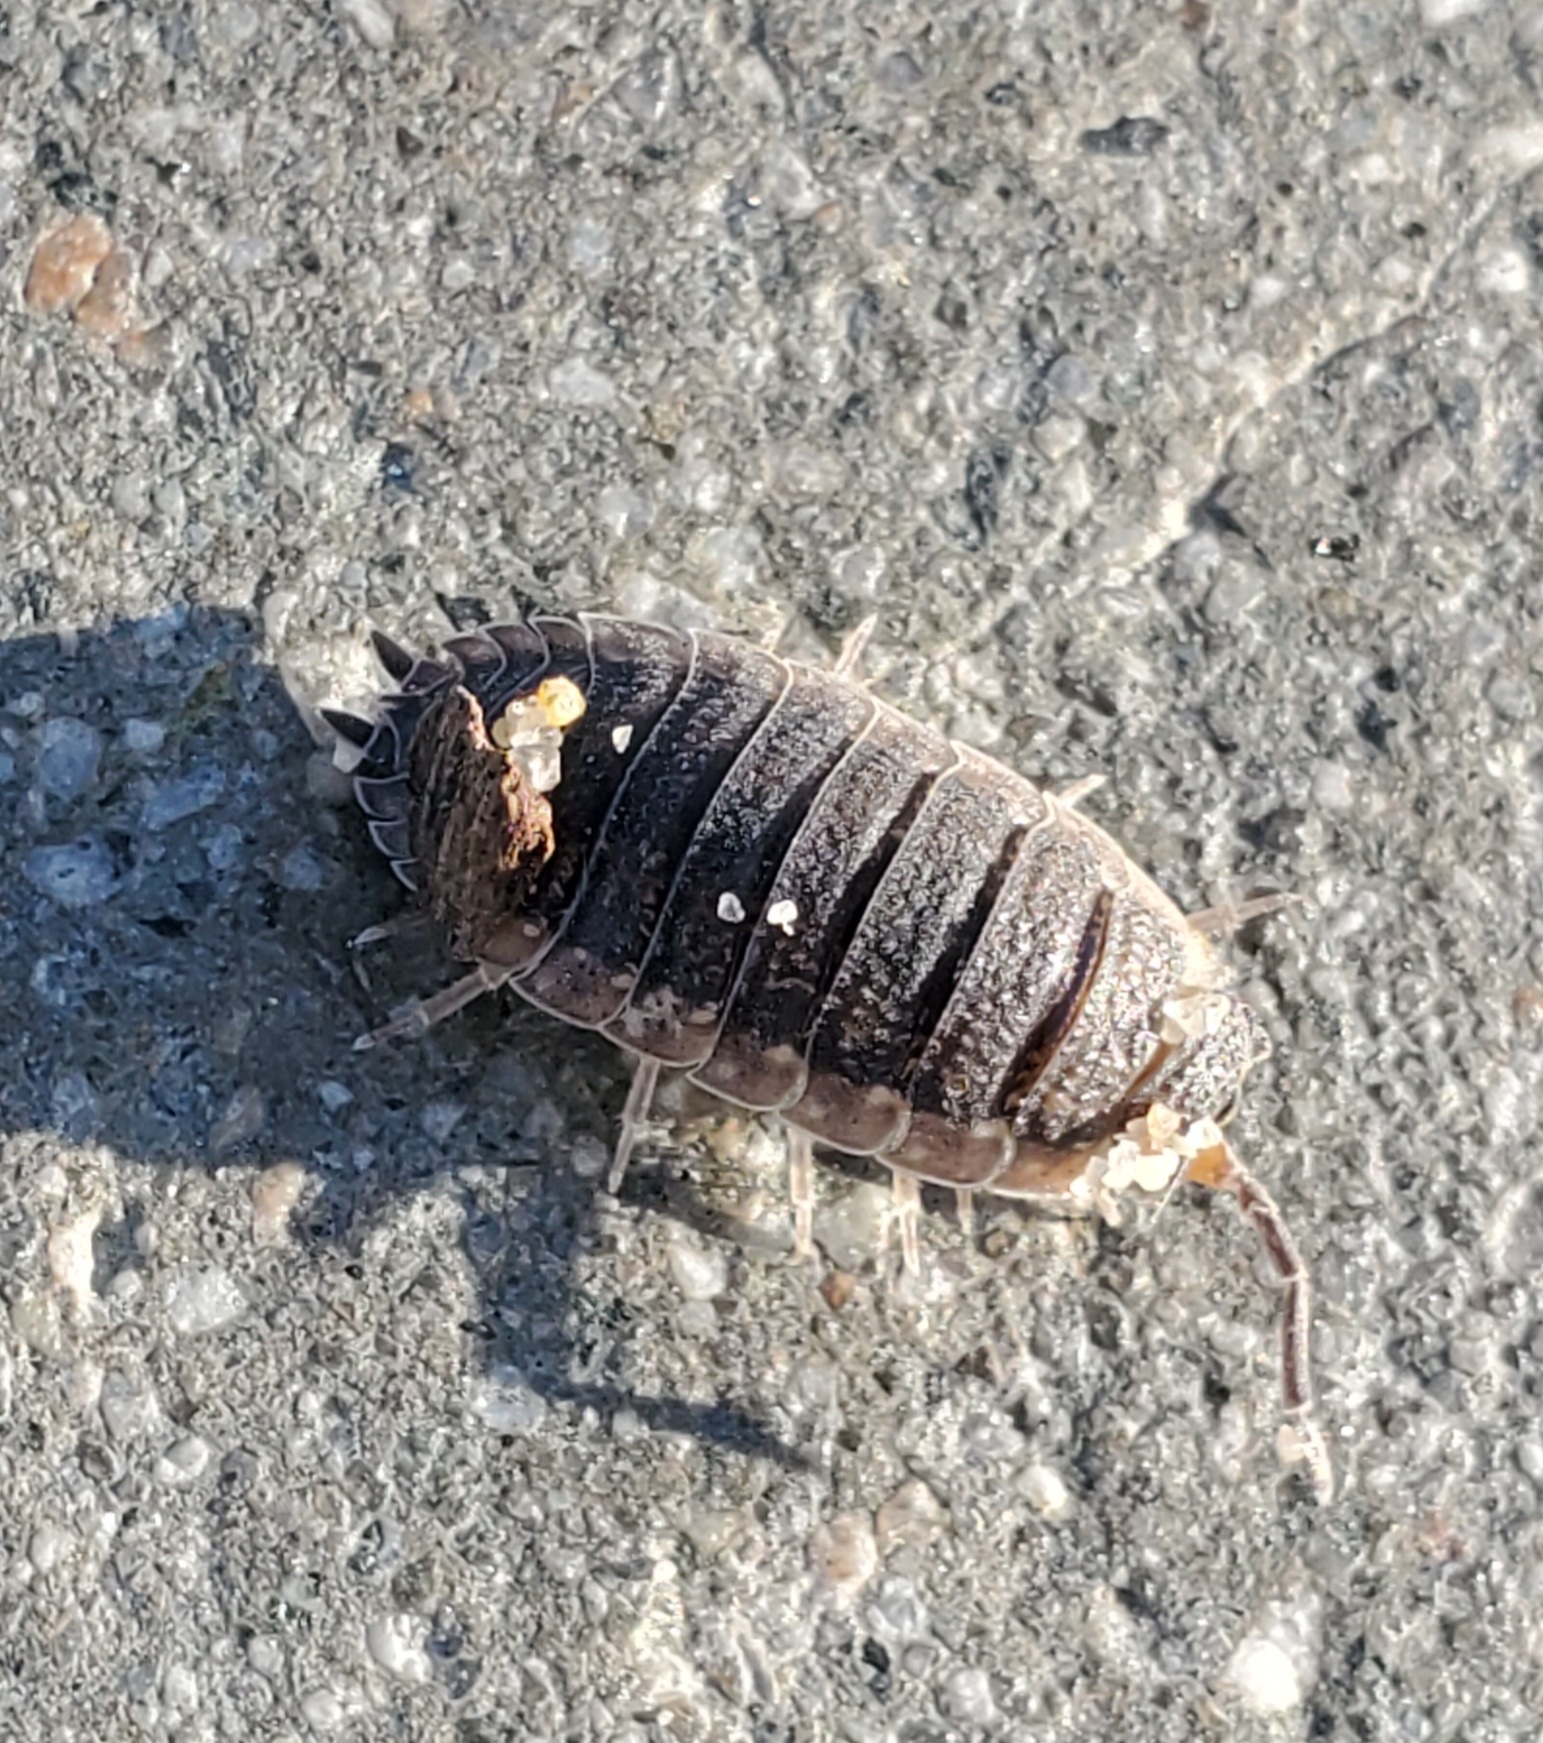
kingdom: Animalia
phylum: Arthropoda
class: Malacostraca
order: Isopoda
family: Porcellionidae
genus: Porcellio
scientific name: Porcellio scaber
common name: Common rough woodlouse
